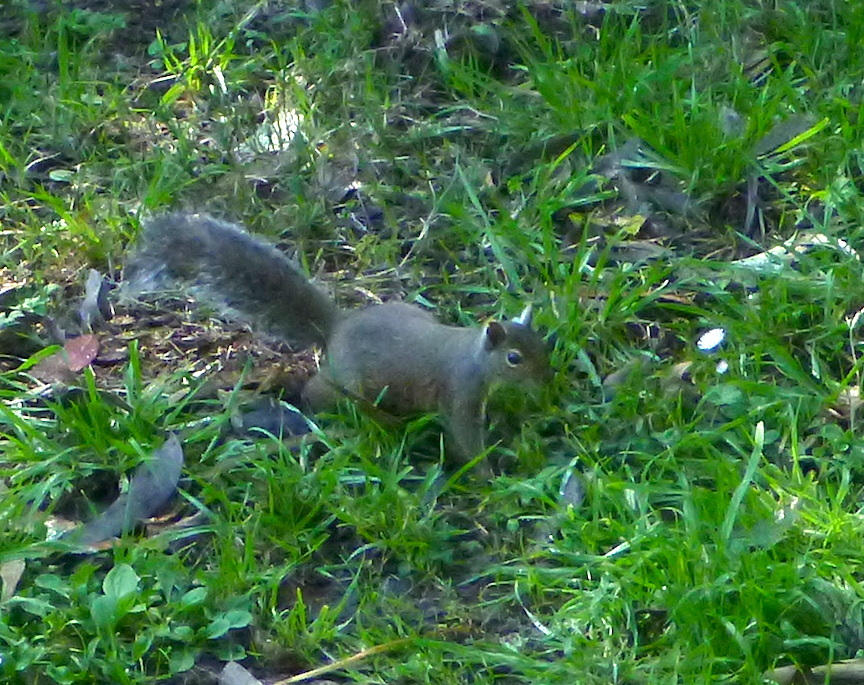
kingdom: Animalia
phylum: Chordata
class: Mammalia
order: Rodentia
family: Sciuridae
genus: Sciurus
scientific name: Sciurus carolinensis
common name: Eastern gray squirrel
